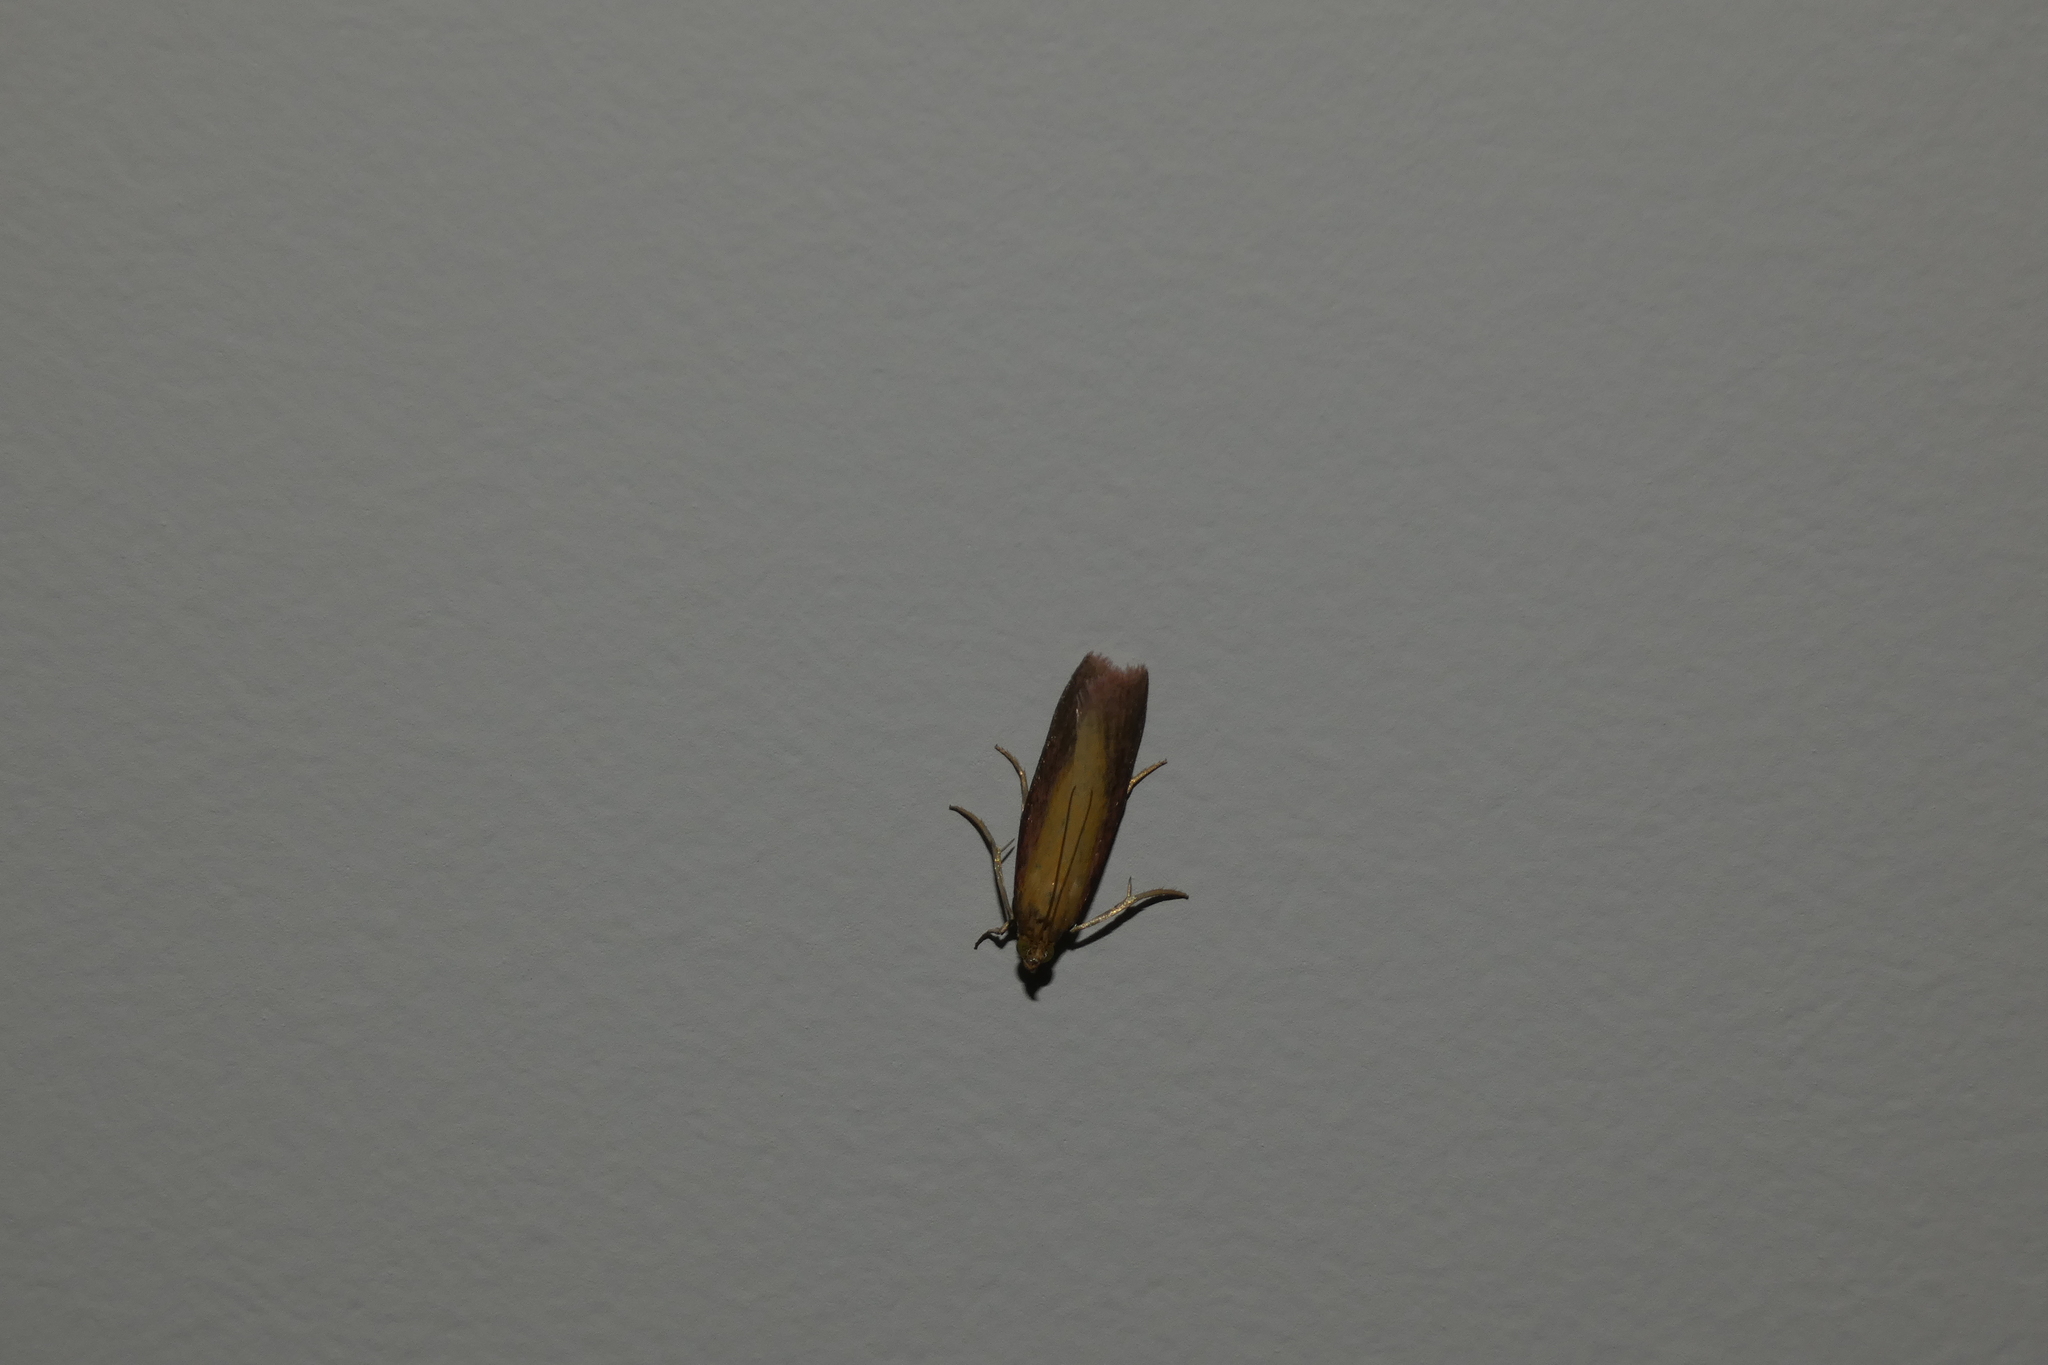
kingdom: Animalia
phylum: Arthropoda
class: Insecta
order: Lepidoptera
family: Pyralidae
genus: Oncocera
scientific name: Oncocera semirubella
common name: Rosy-striped knot-horn
